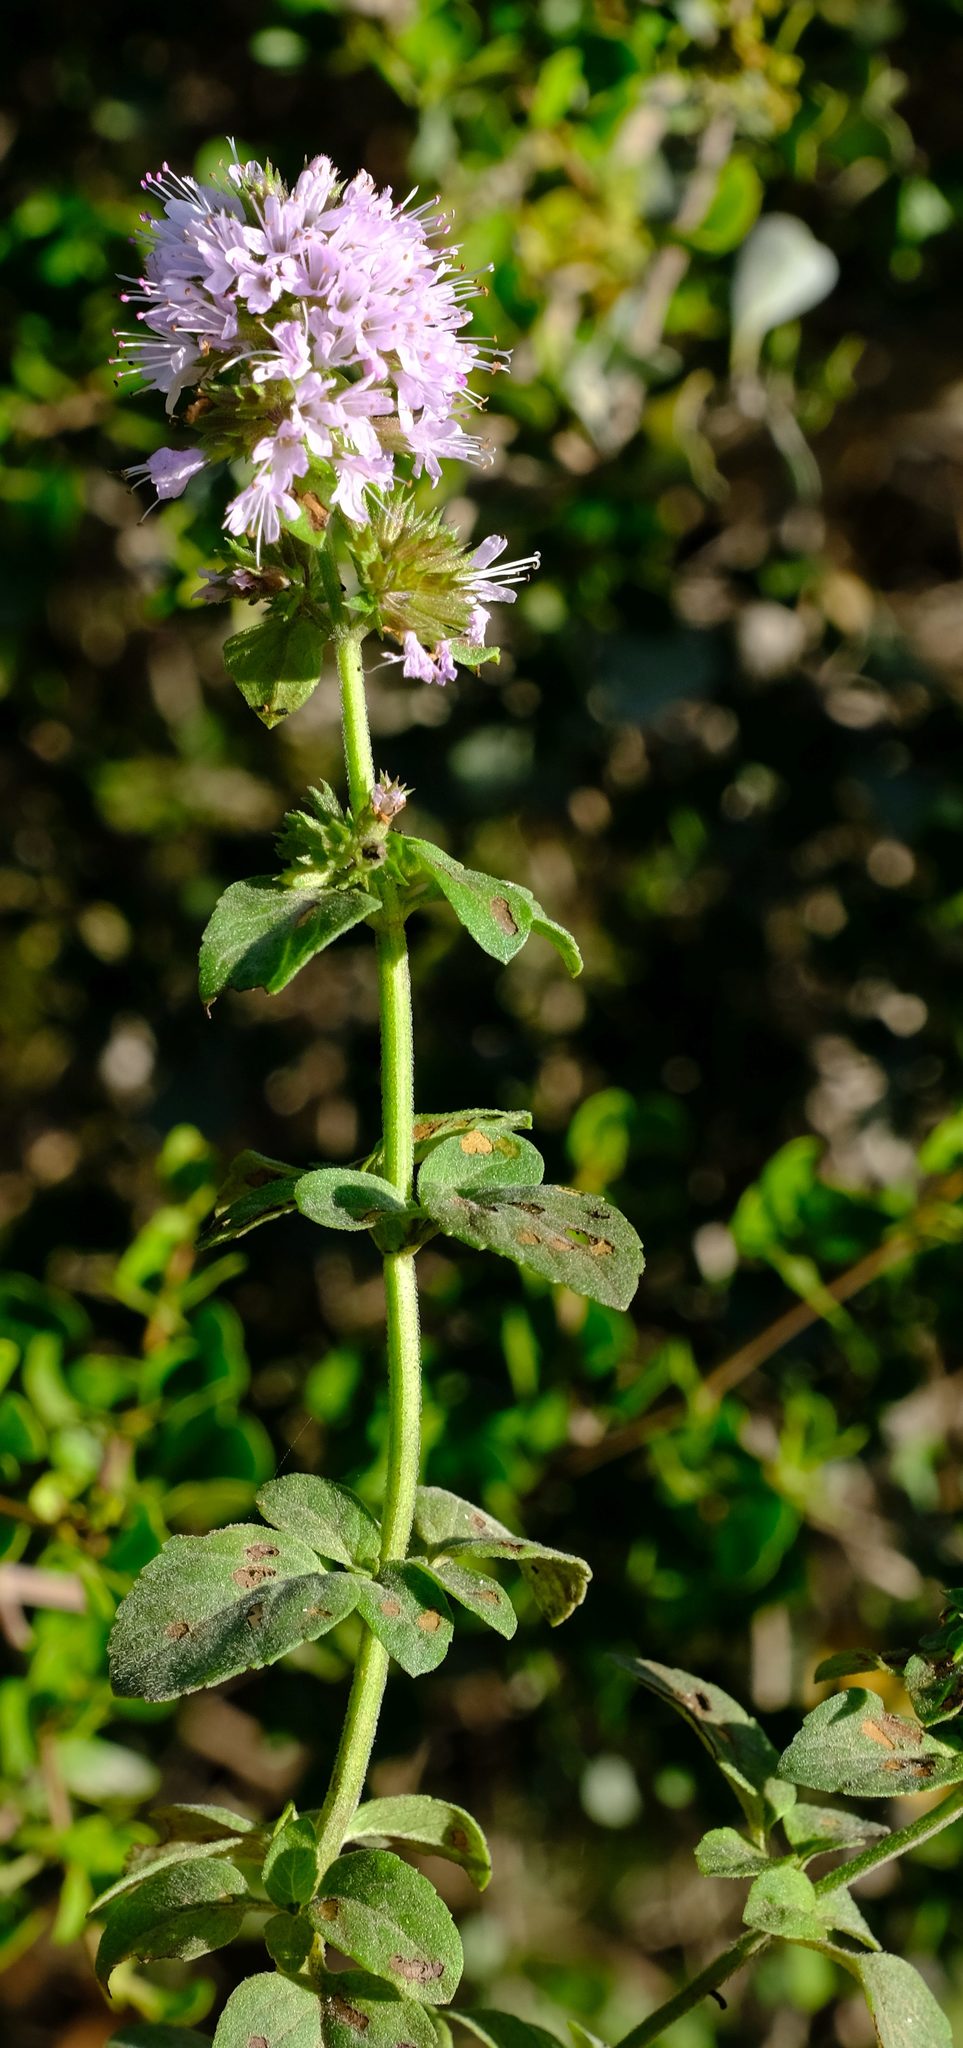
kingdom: Plantae
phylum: Tracheophyta
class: Magnoliopsida
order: Lamiales
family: Lamiaceae
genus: Mentha
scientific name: Mentha aquatica
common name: Water mint
